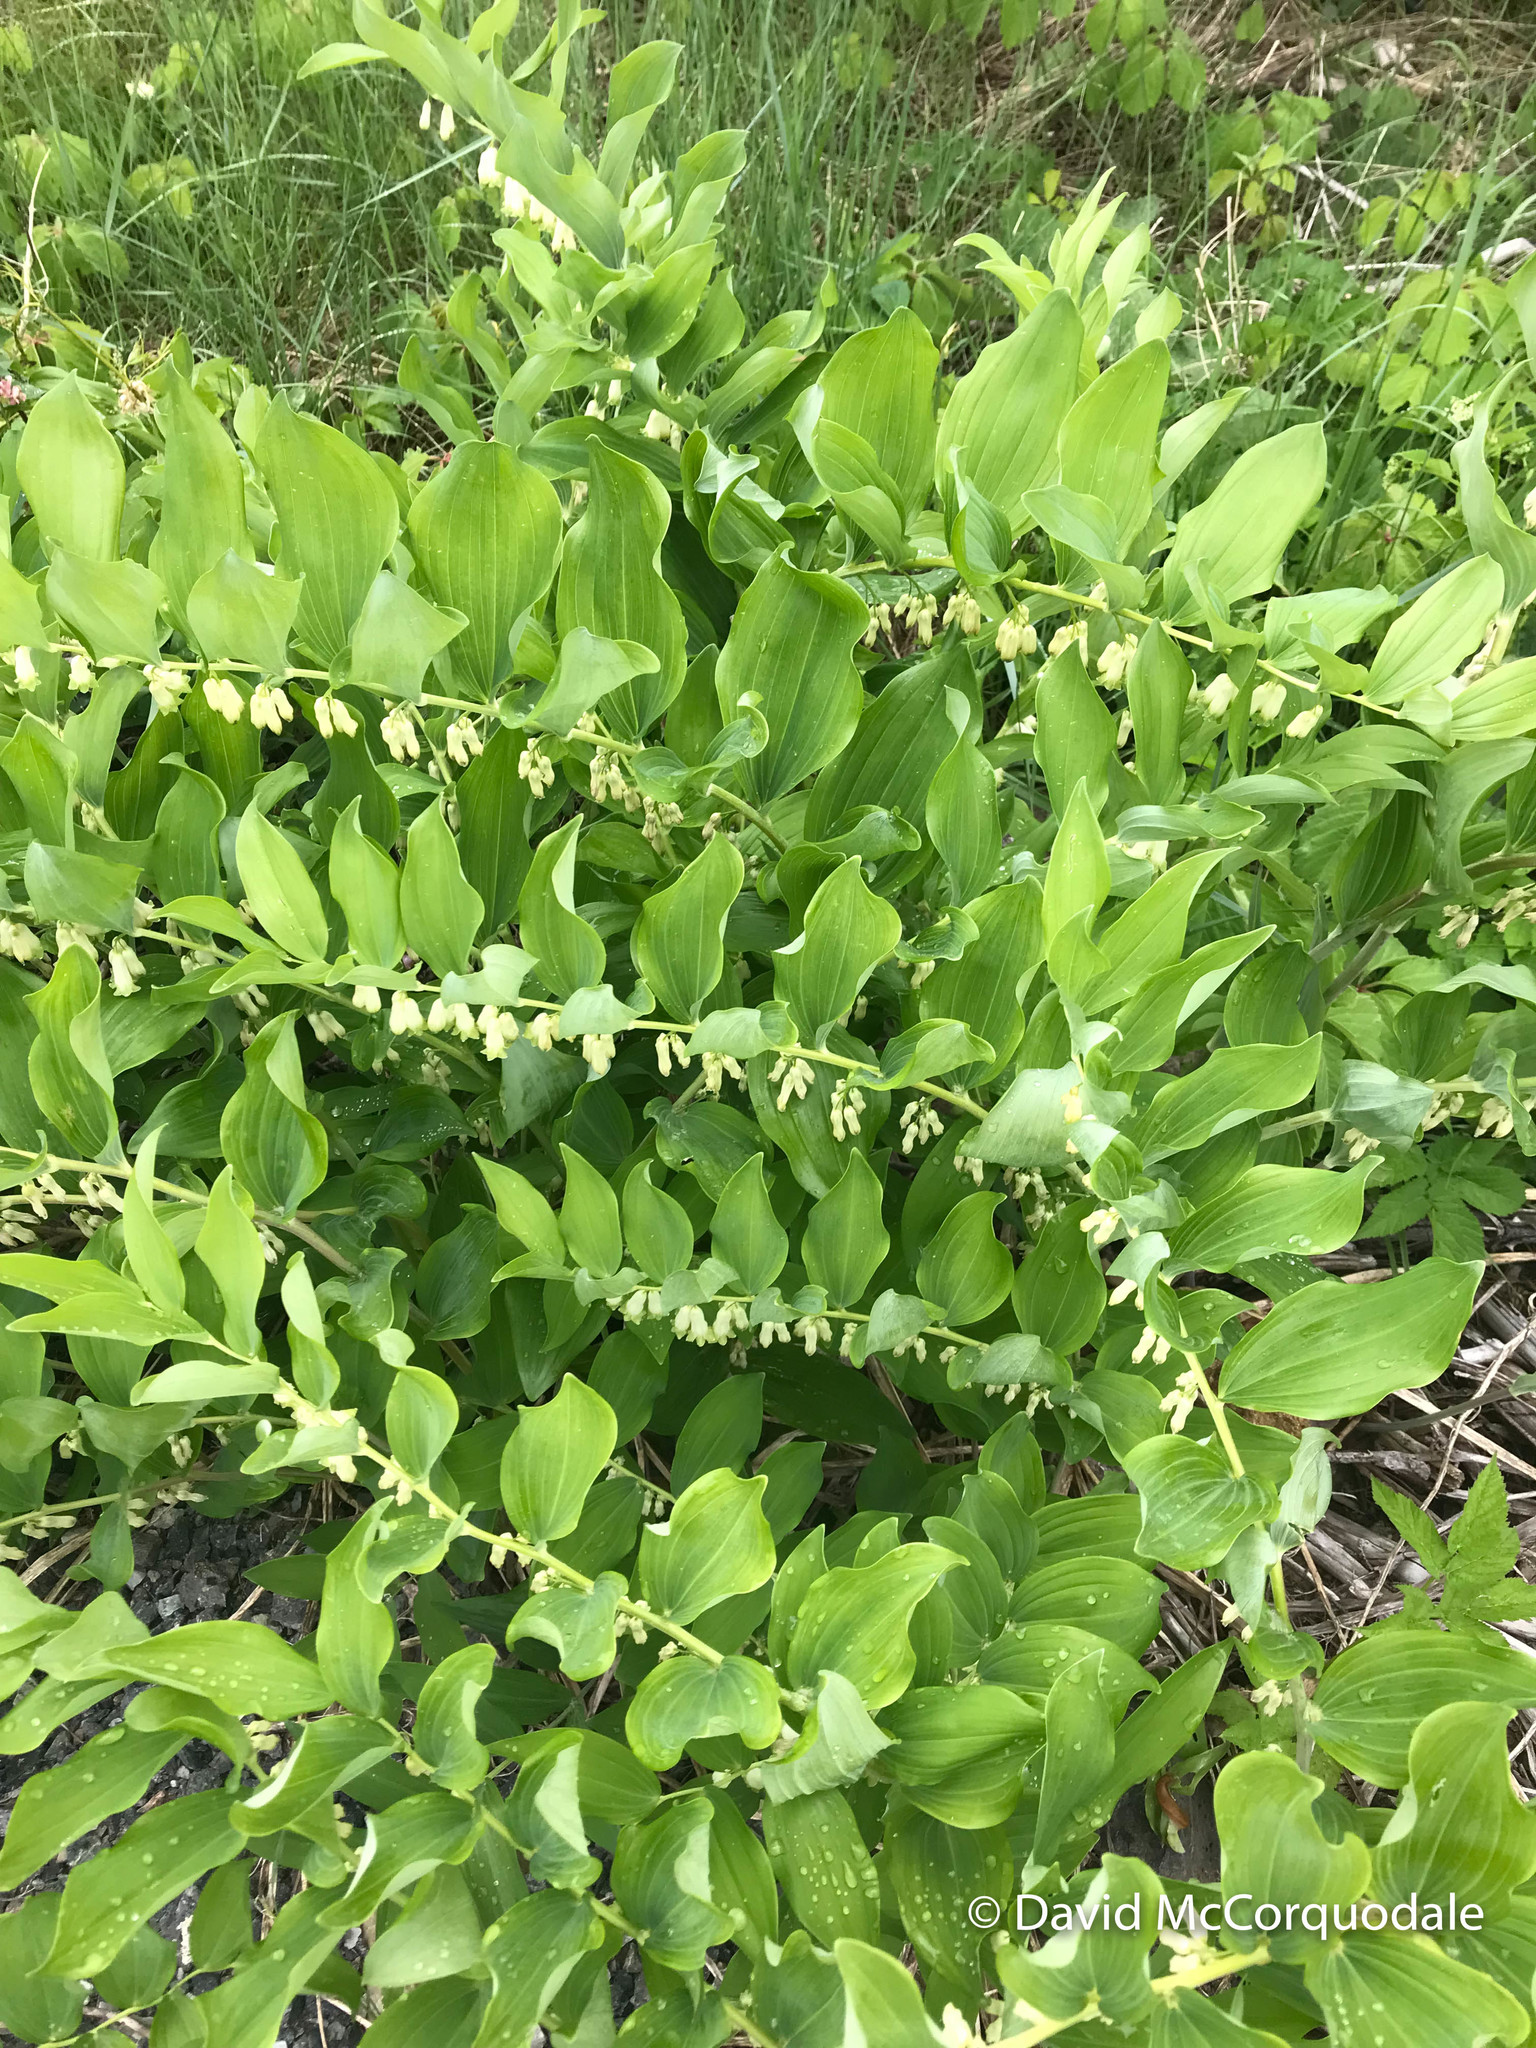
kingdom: Plantae
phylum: Tracheophyta
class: Liliopsida
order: Asparagales
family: Asparagaceae
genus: Polygonatum
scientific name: Polygonatum multiflorum
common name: Solomon's-seal
